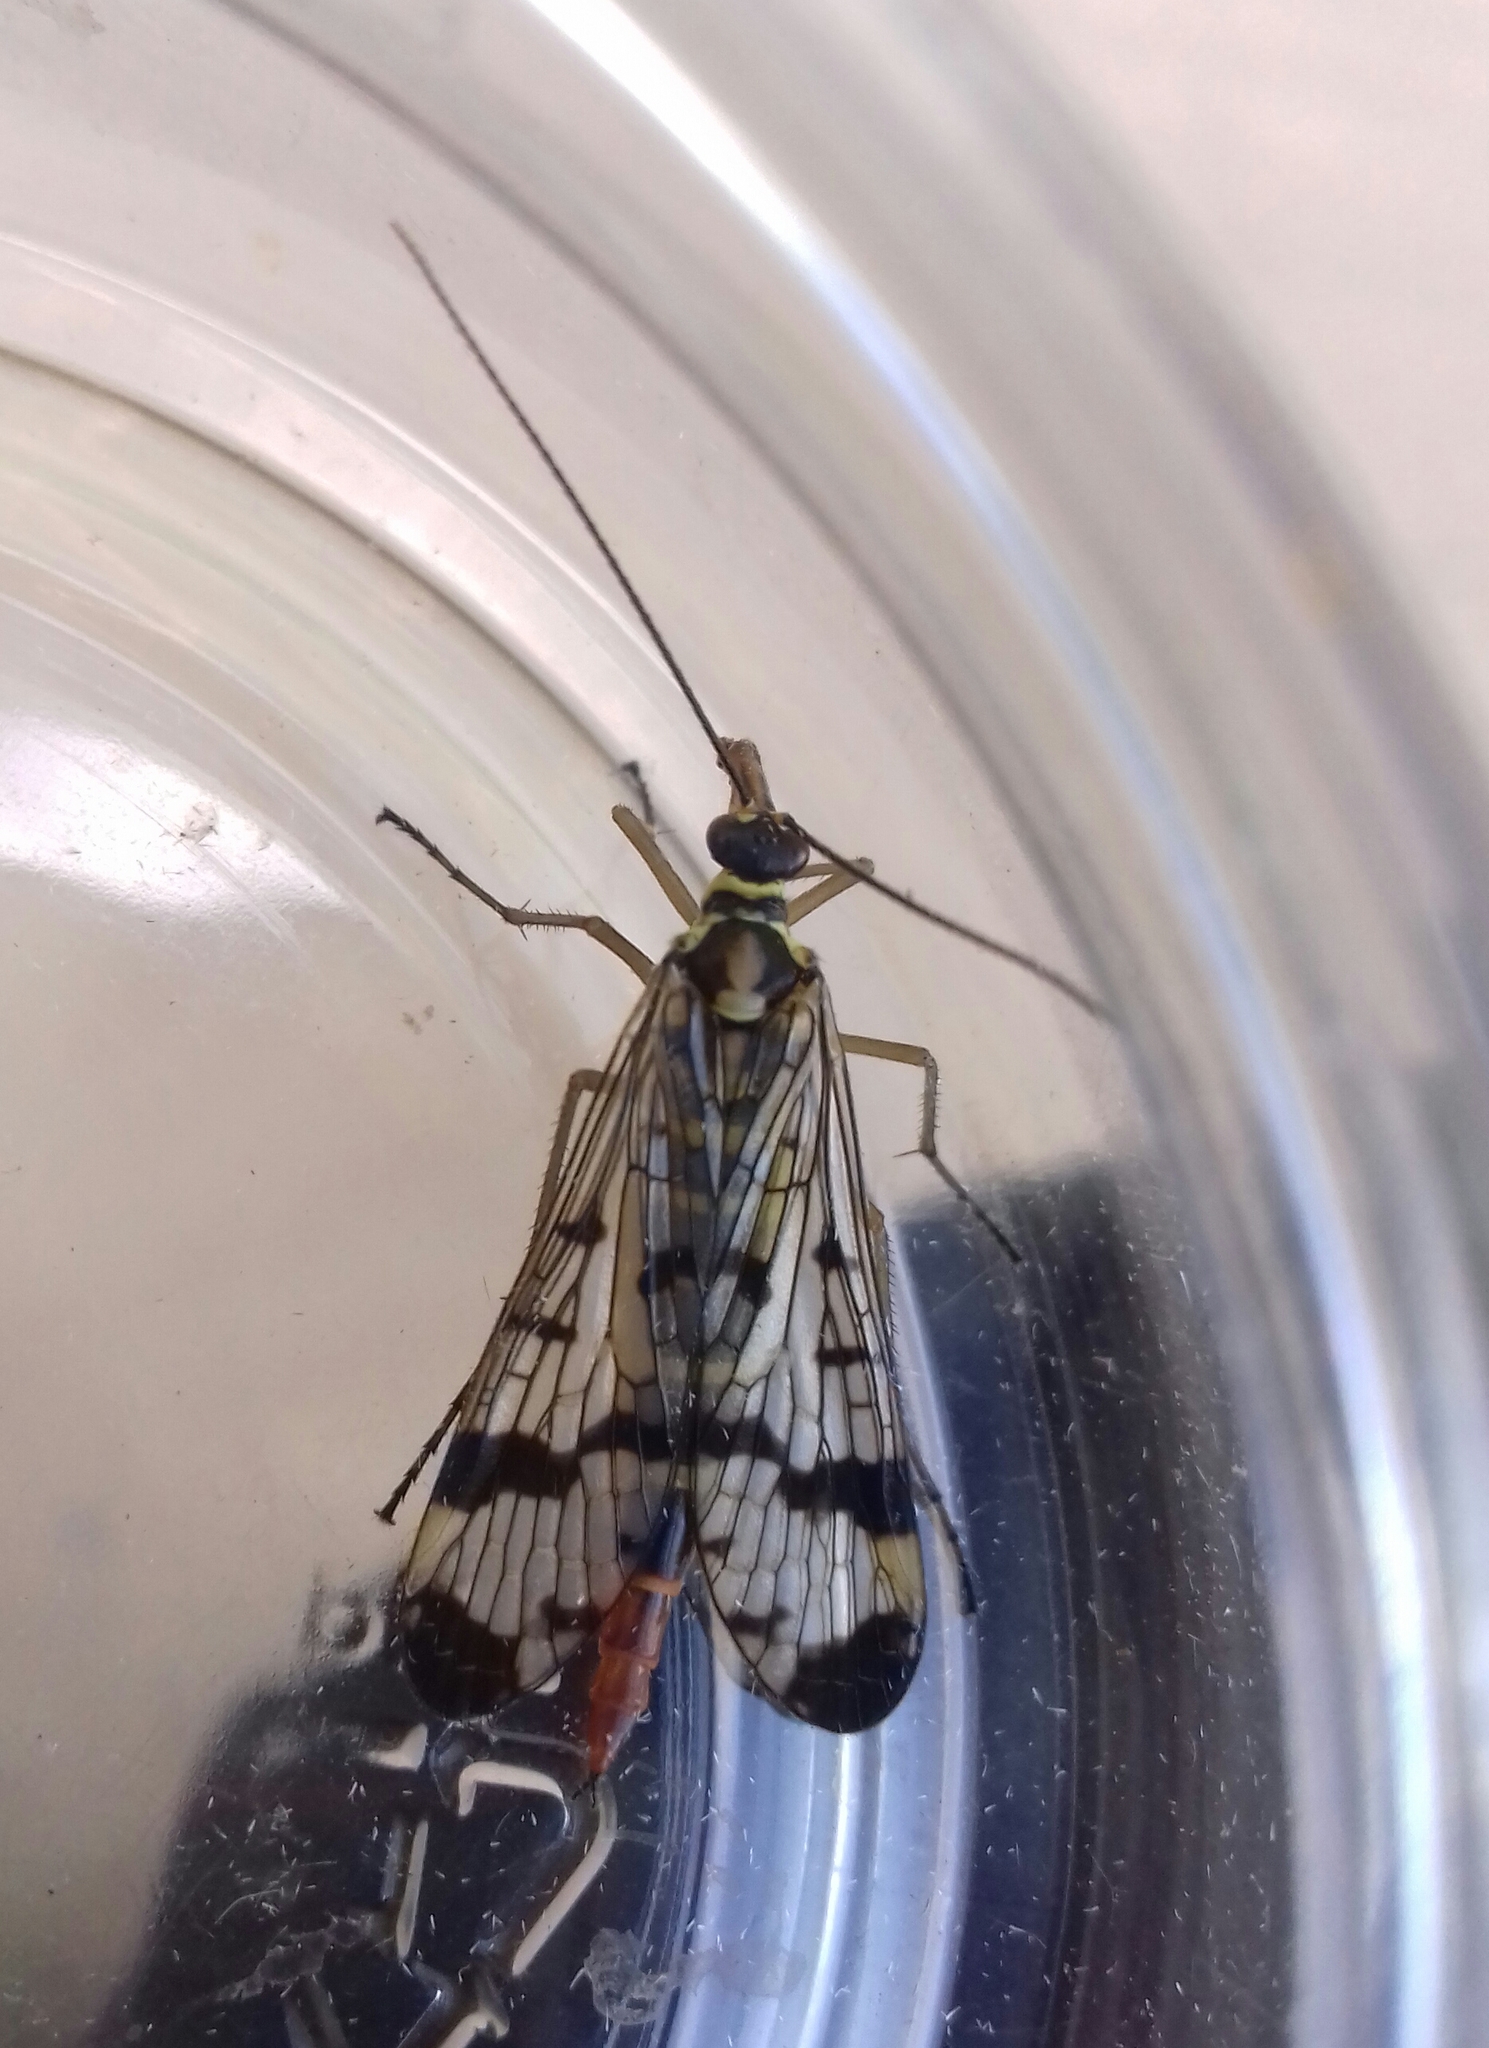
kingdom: Animalia
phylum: Arthropoda
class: Insecta
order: Mecoptera
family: Panorpidae
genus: Panorpa
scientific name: Panorpa communis
